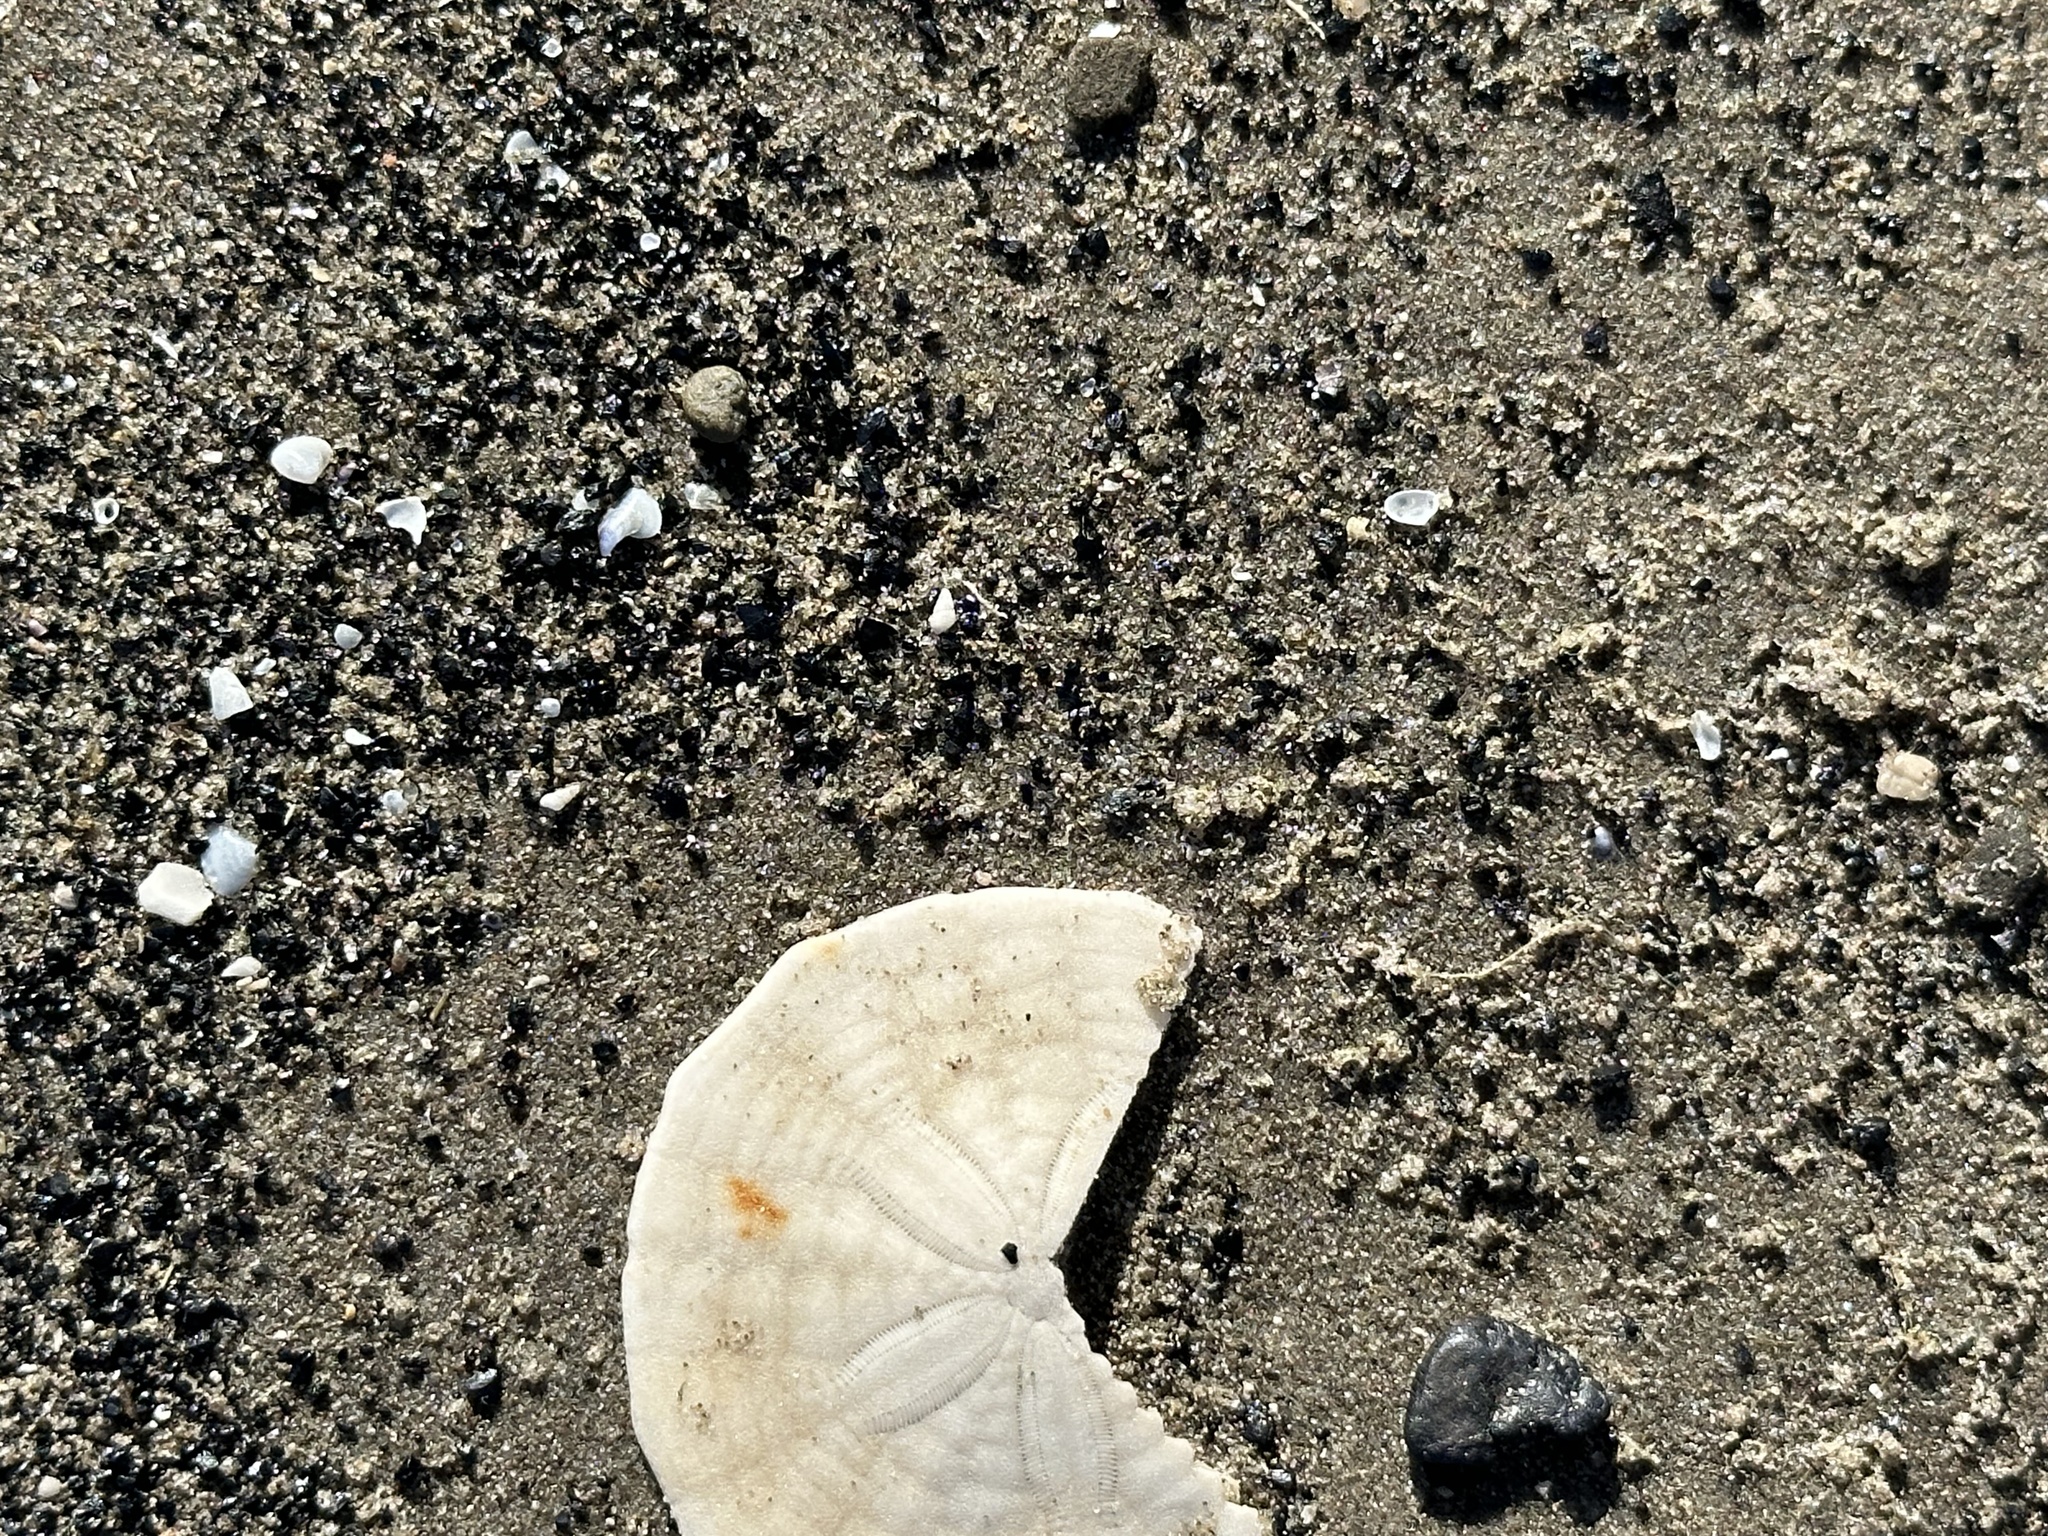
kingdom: Animalia
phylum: Echinodermata
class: Echinoidea
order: Echinolampadacea
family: Echinarachniidae
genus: Echinarachnius
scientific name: Echinarachnius parma
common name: Common sand dollar
